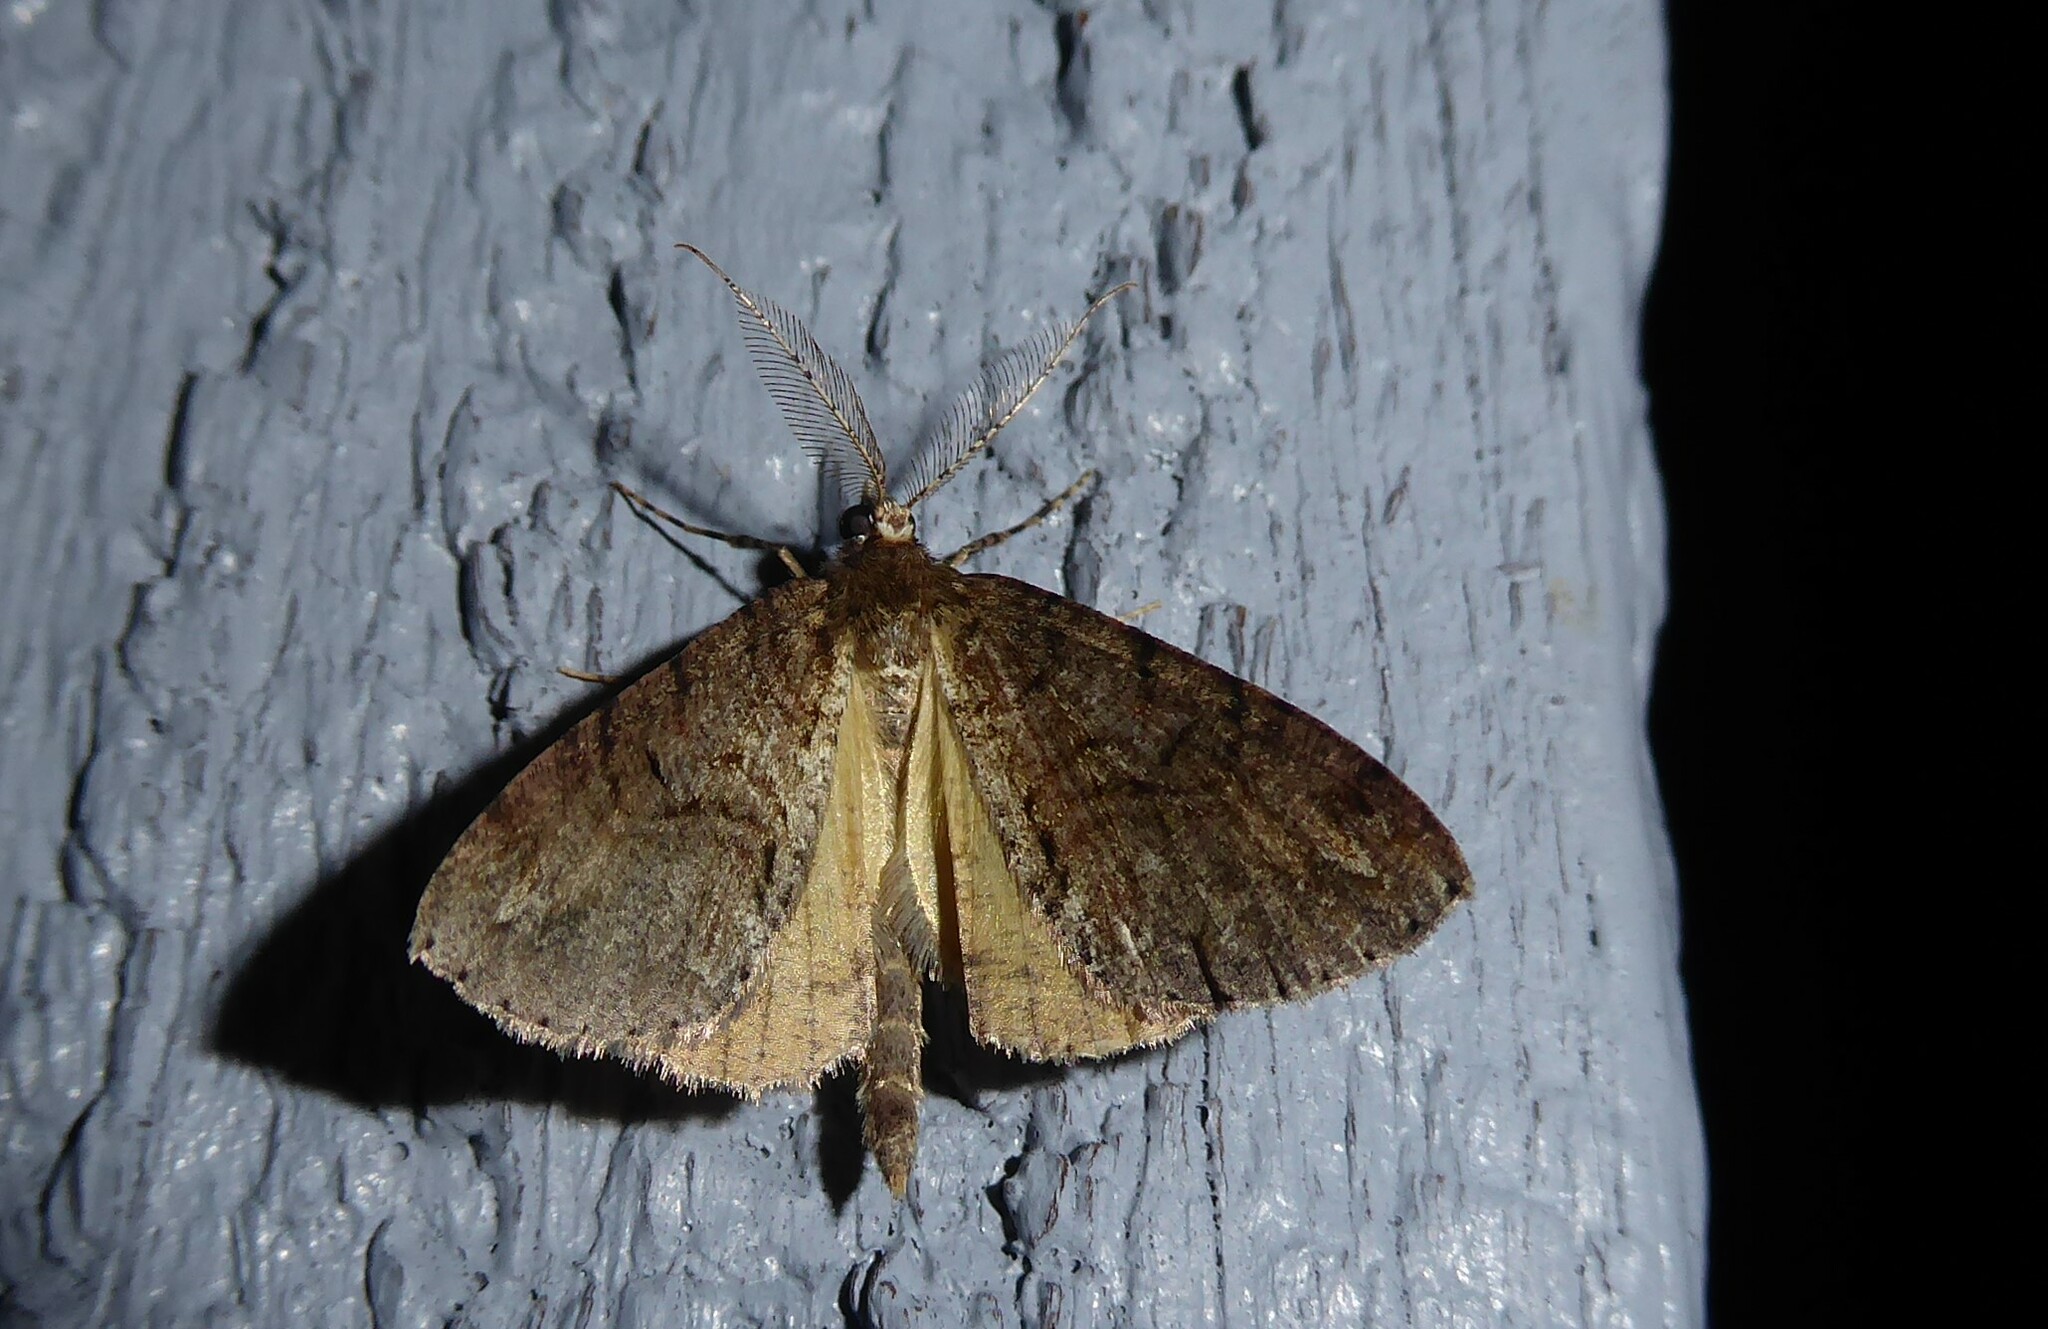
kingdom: Animalia
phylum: Arthropoda
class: Insecta
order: Lepidoptera
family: Geometridae
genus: Pseudocoremia
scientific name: Pseudocoremia suavis
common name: Common forest looper
